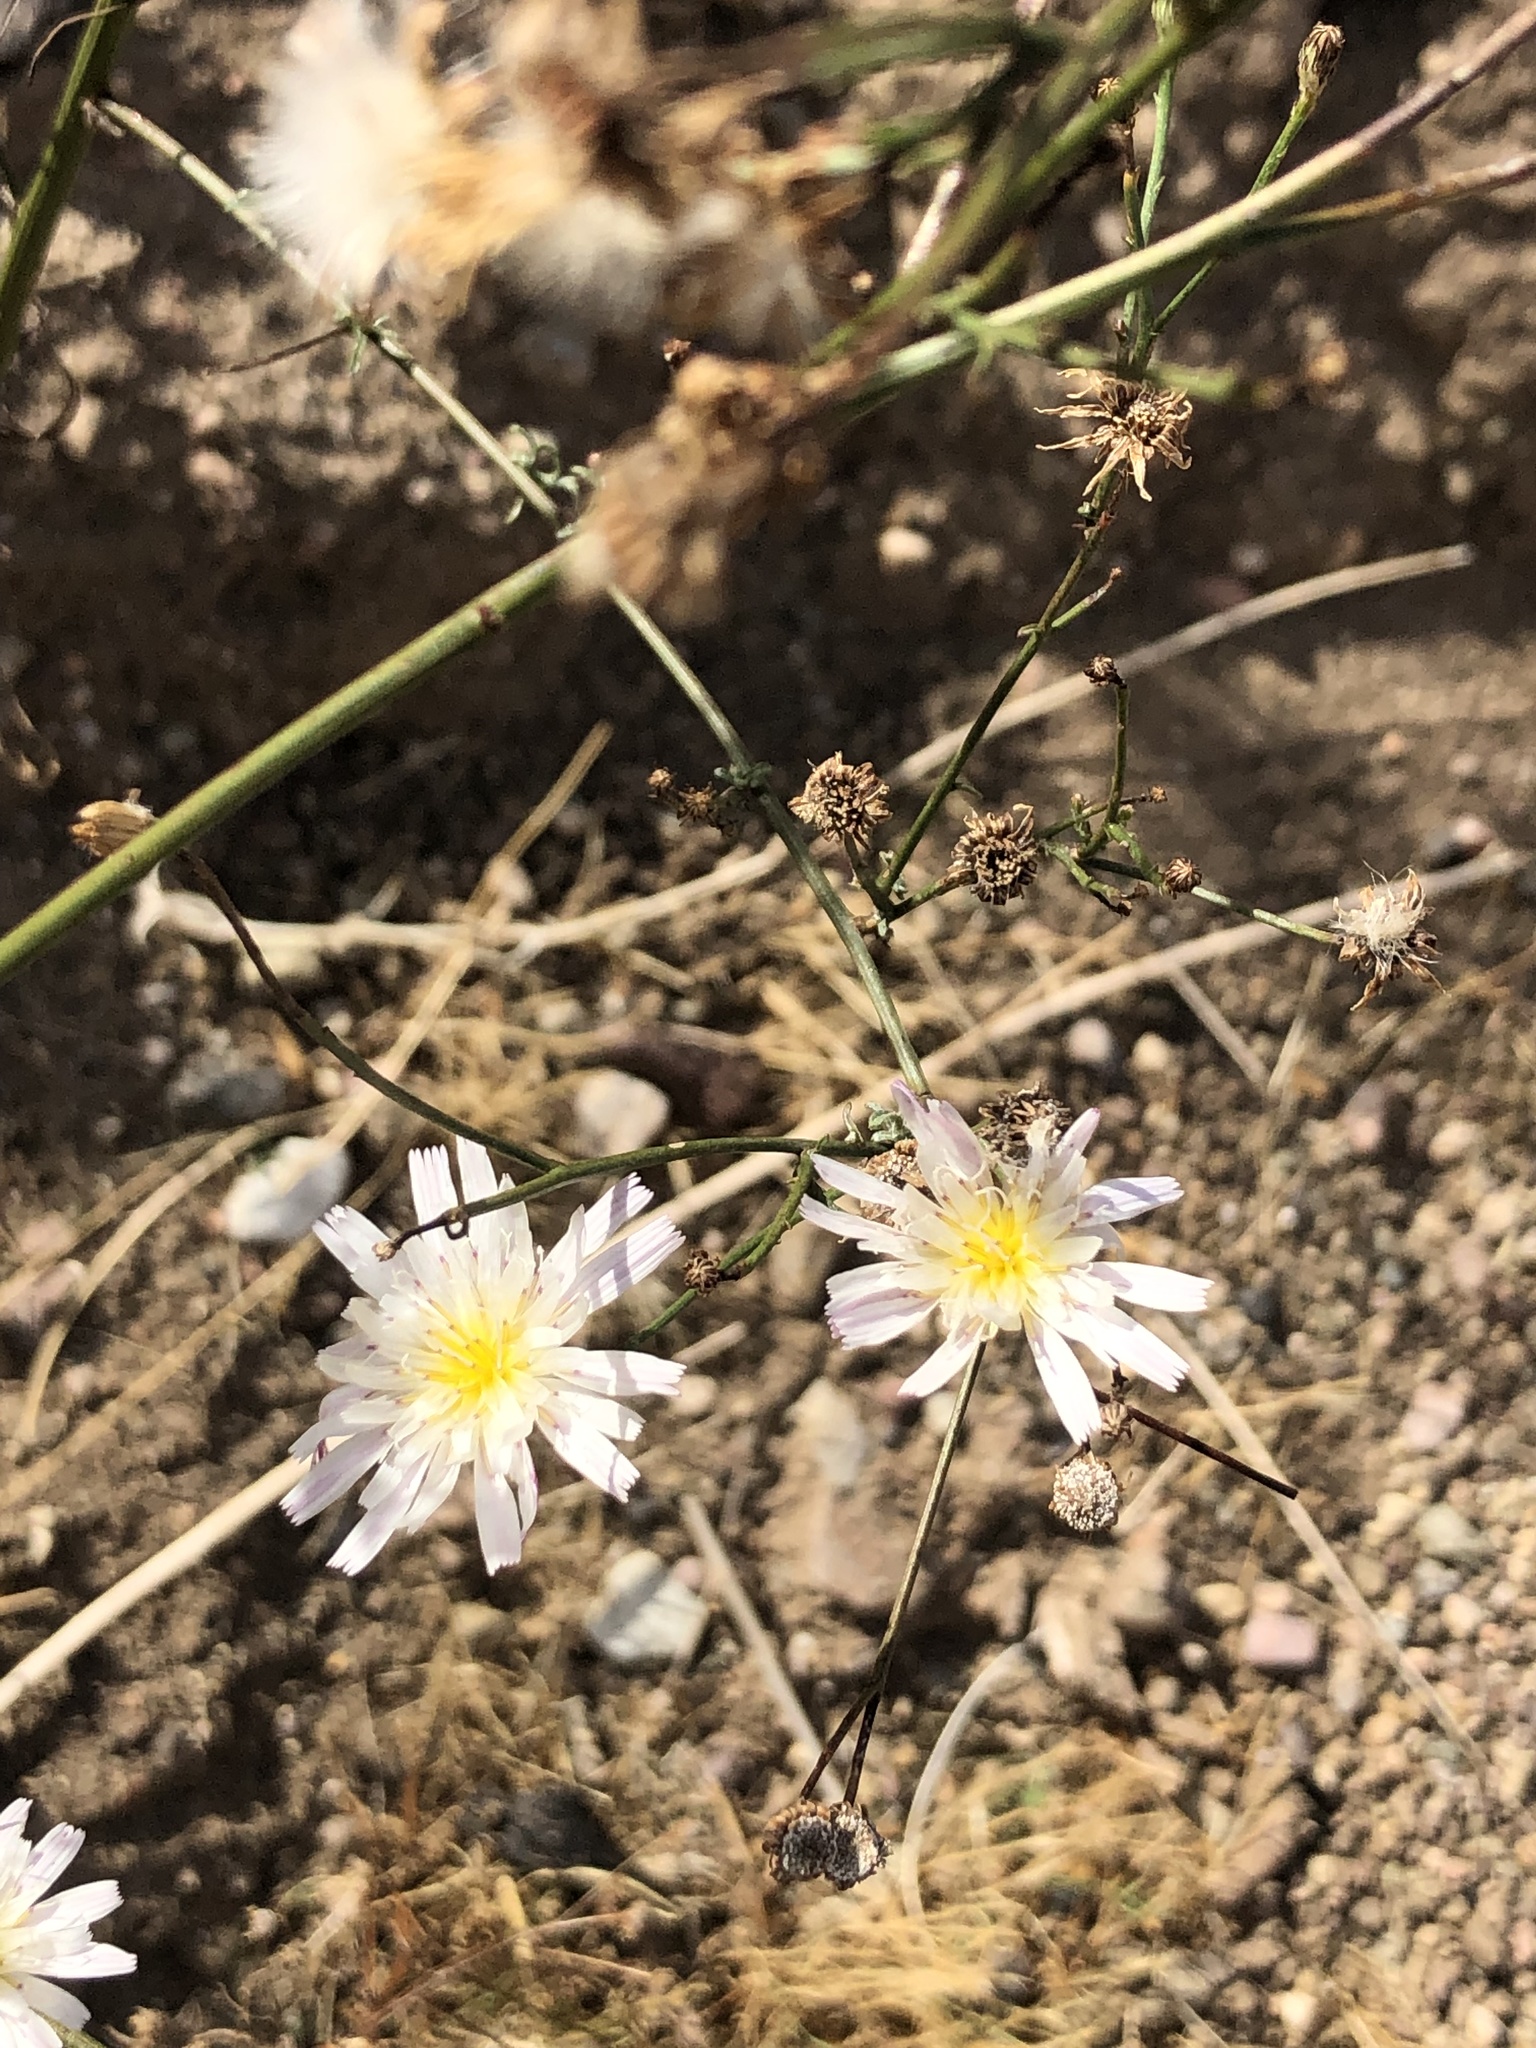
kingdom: Plantae
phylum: Tracheophyta
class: Magnoliopsida
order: Asterales
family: Asteraceae
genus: Malacothrix
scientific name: Malacothrix saxatilis
